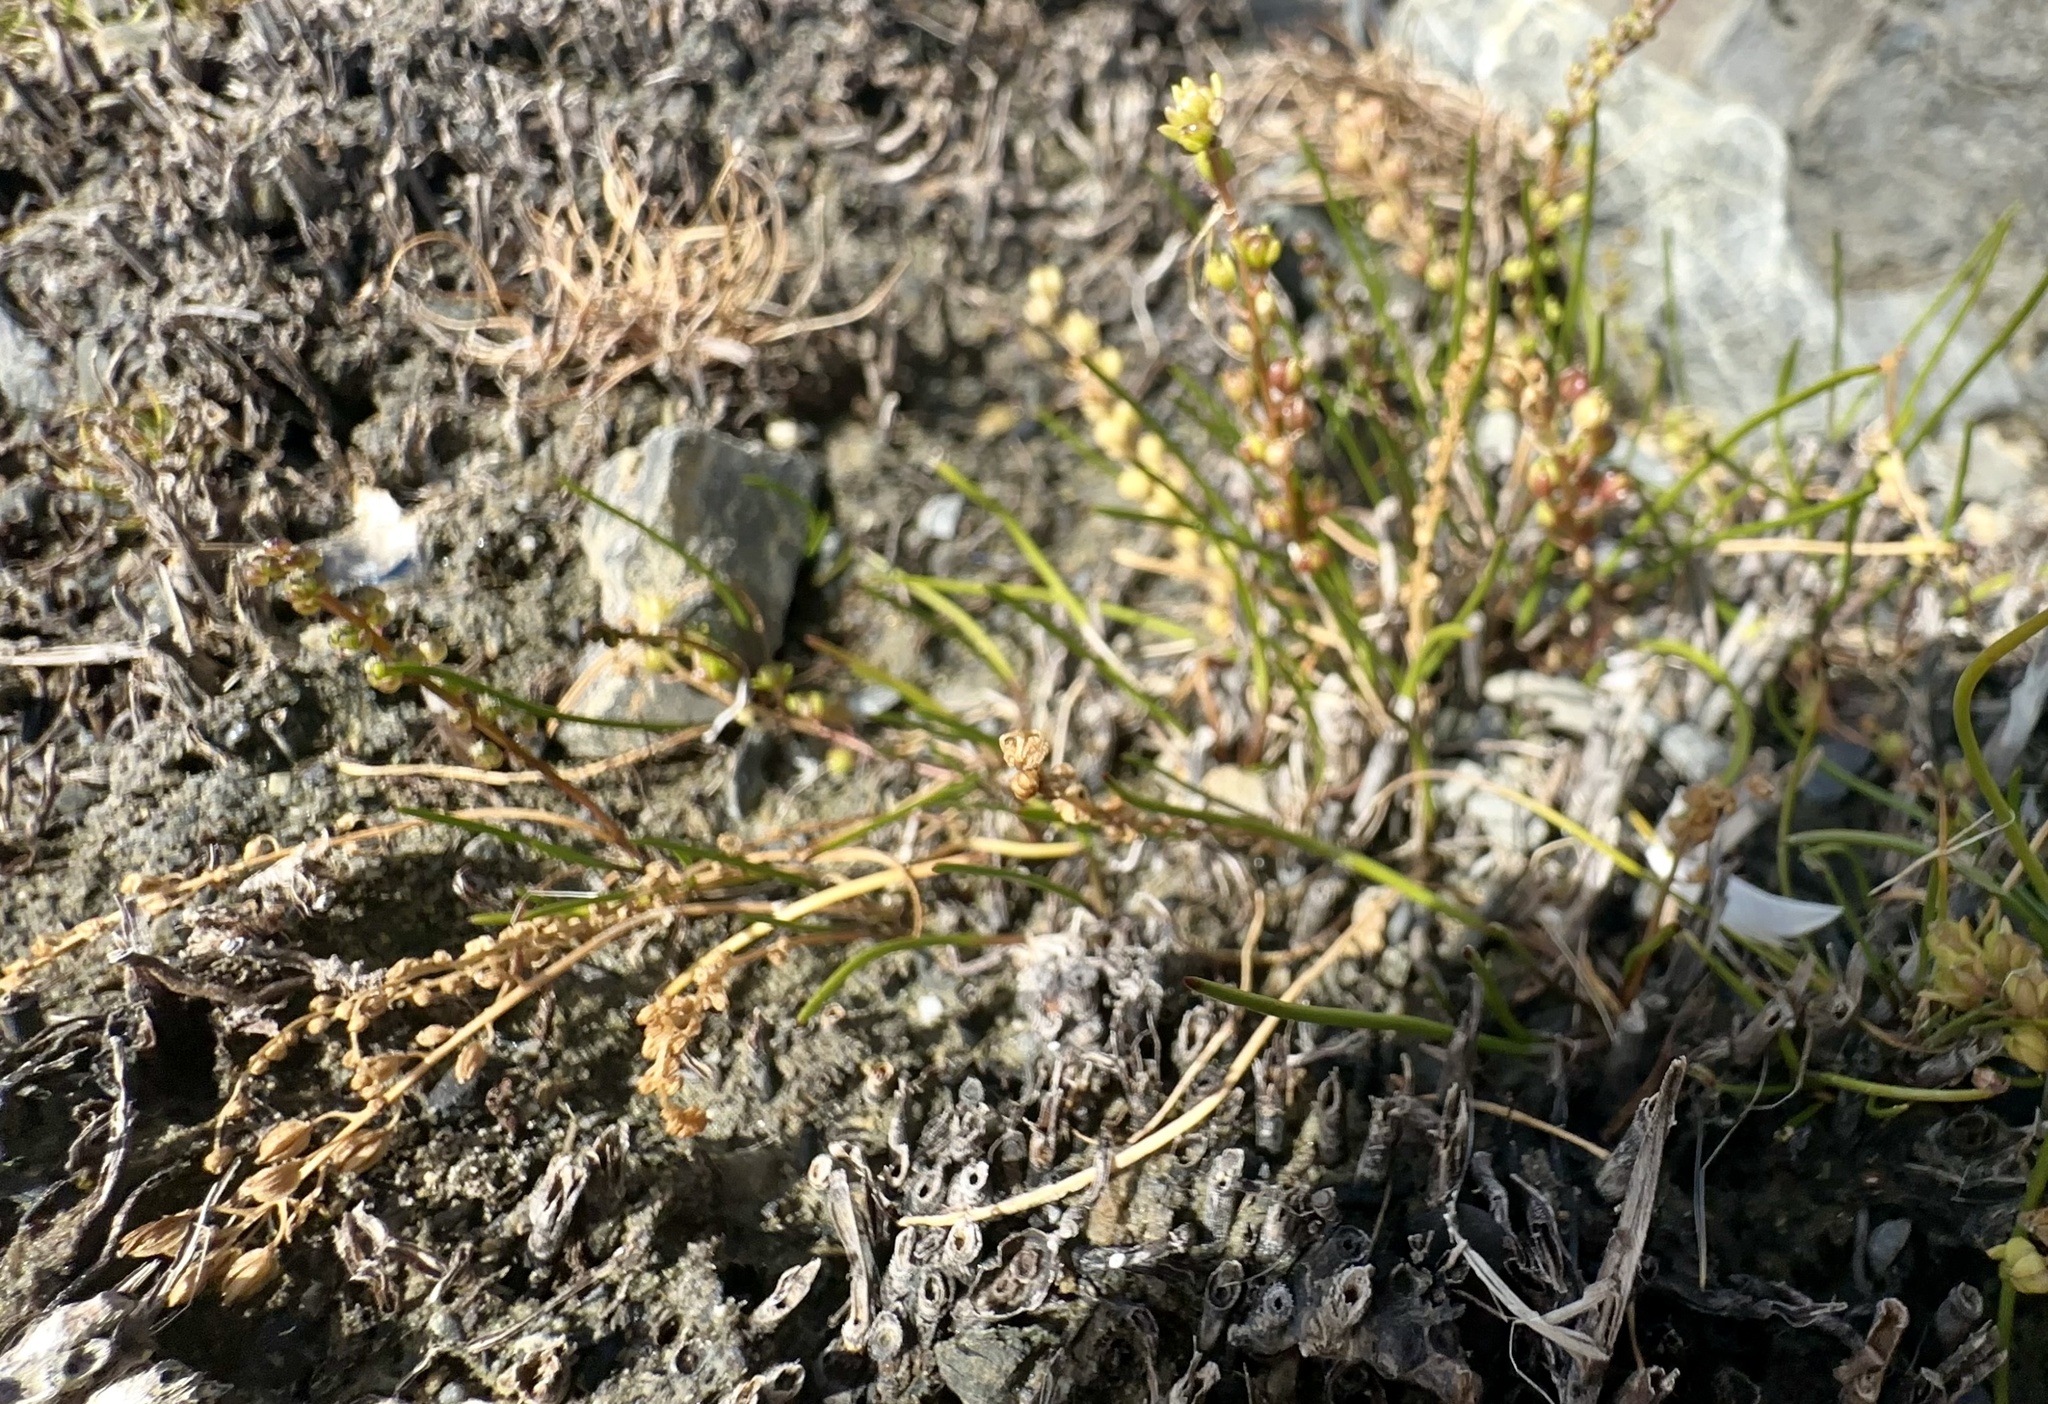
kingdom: Plantae
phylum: Tracheophyta
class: Liliopsida
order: Alismatales
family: Juncaginaceae
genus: Triglochin
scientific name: Triglochin striata
